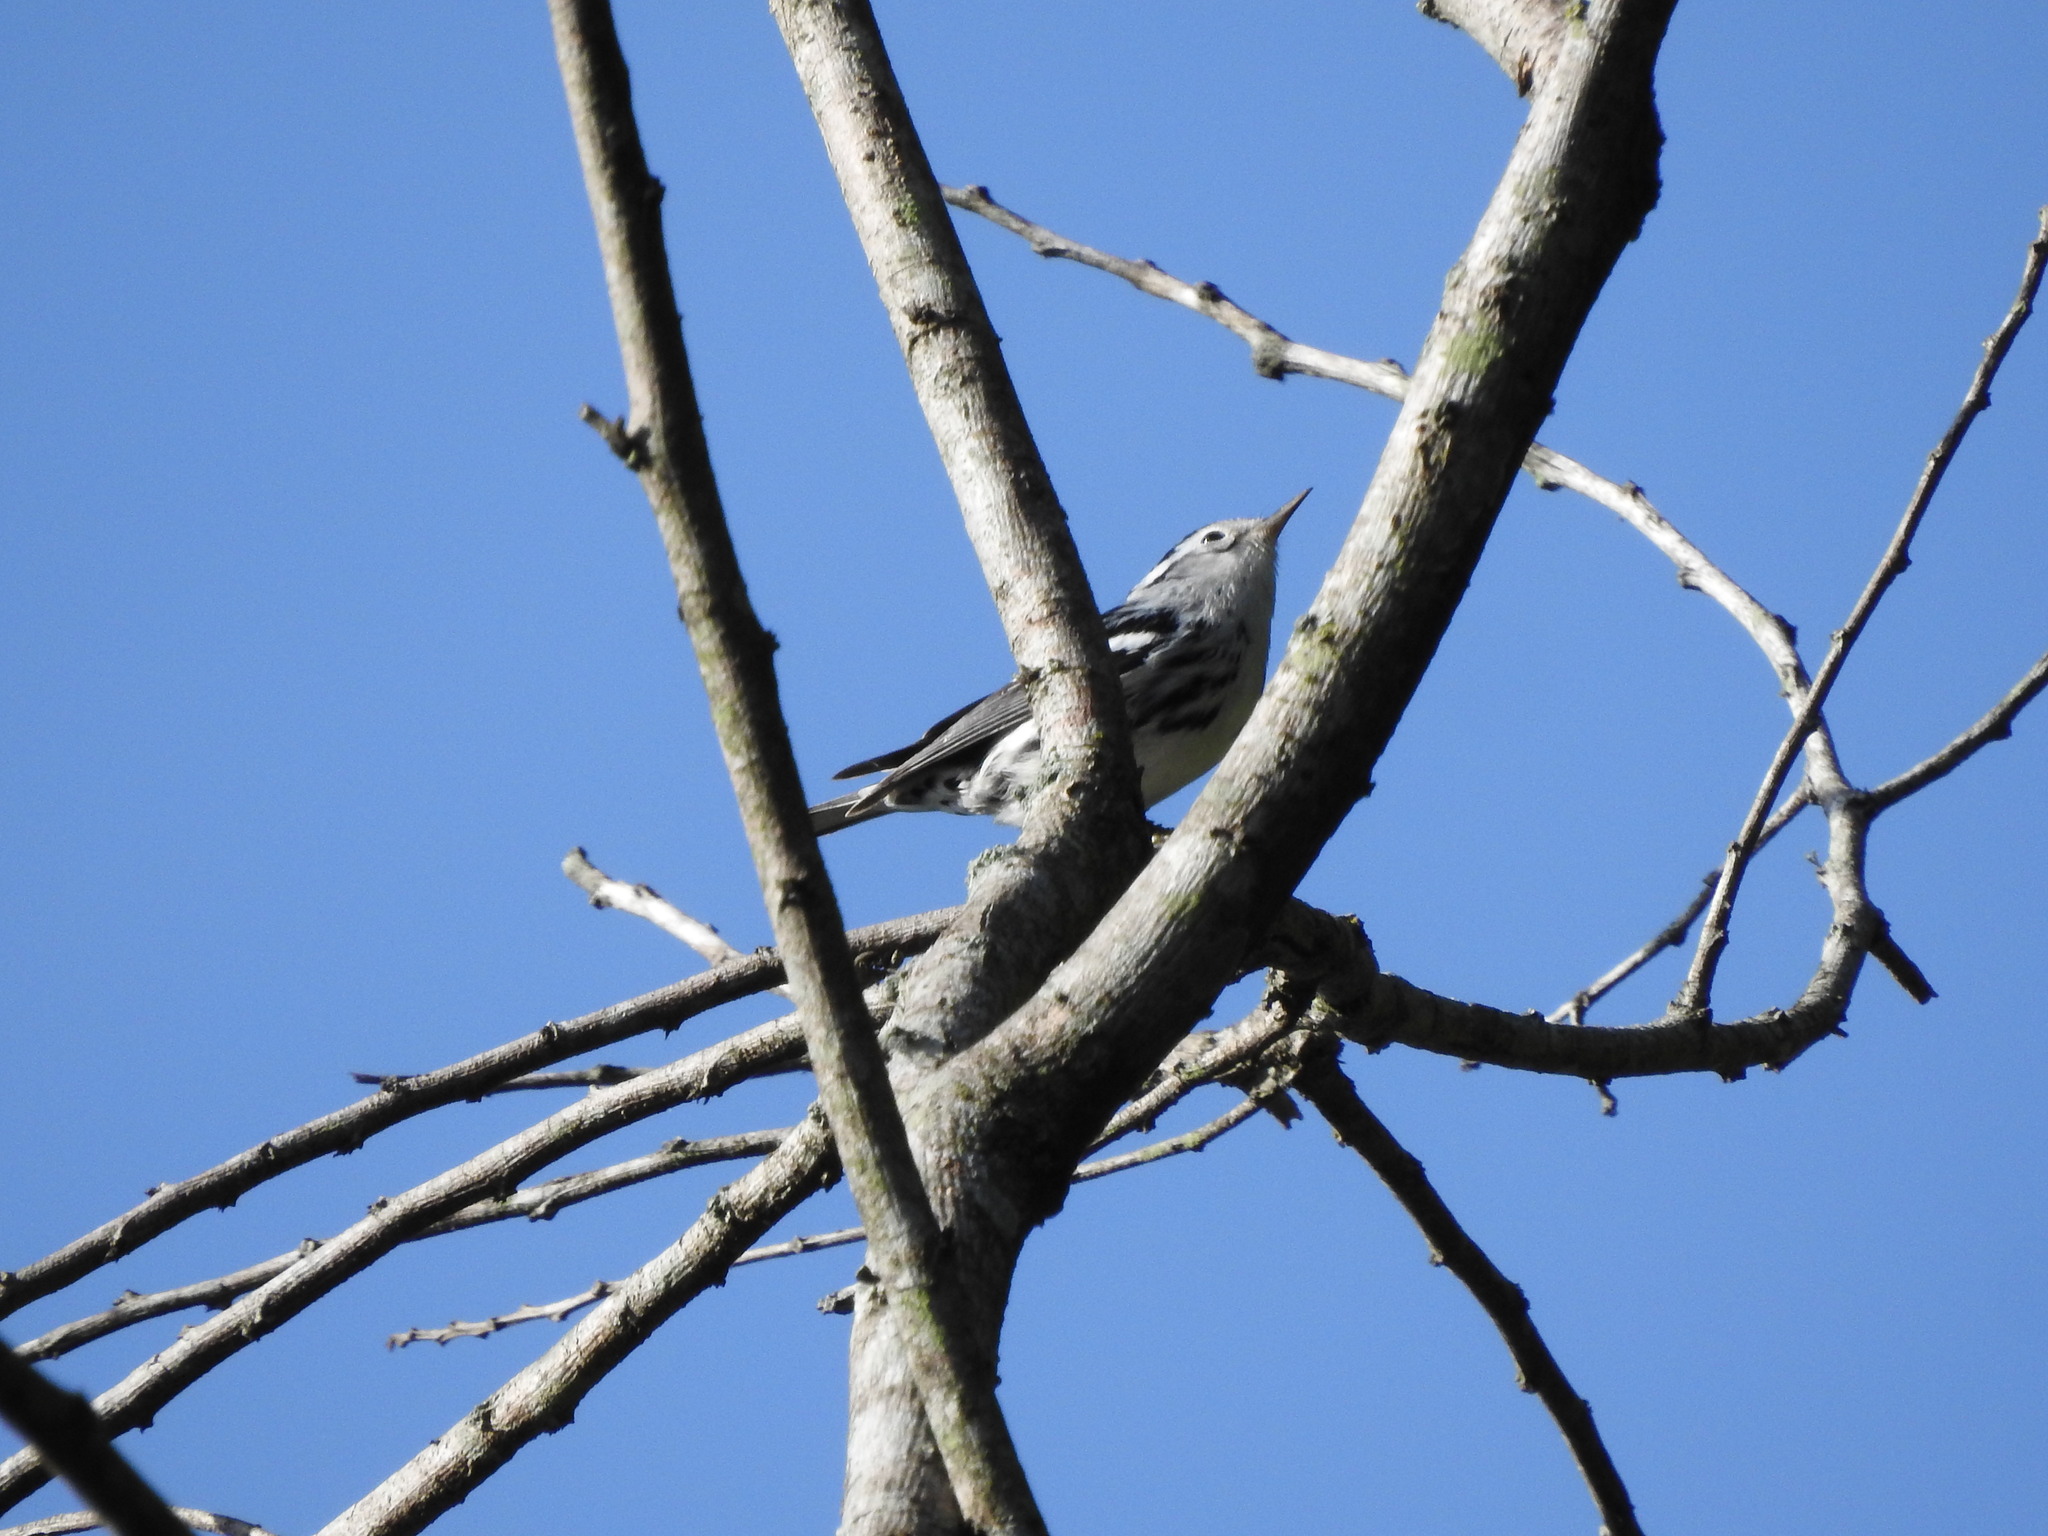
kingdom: Animalia
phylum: Chordata
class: Aves
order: Passeriformes
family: Parulidae
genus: Mniotilta
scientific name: Mniotilta varia
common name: Black-and-white warbler
